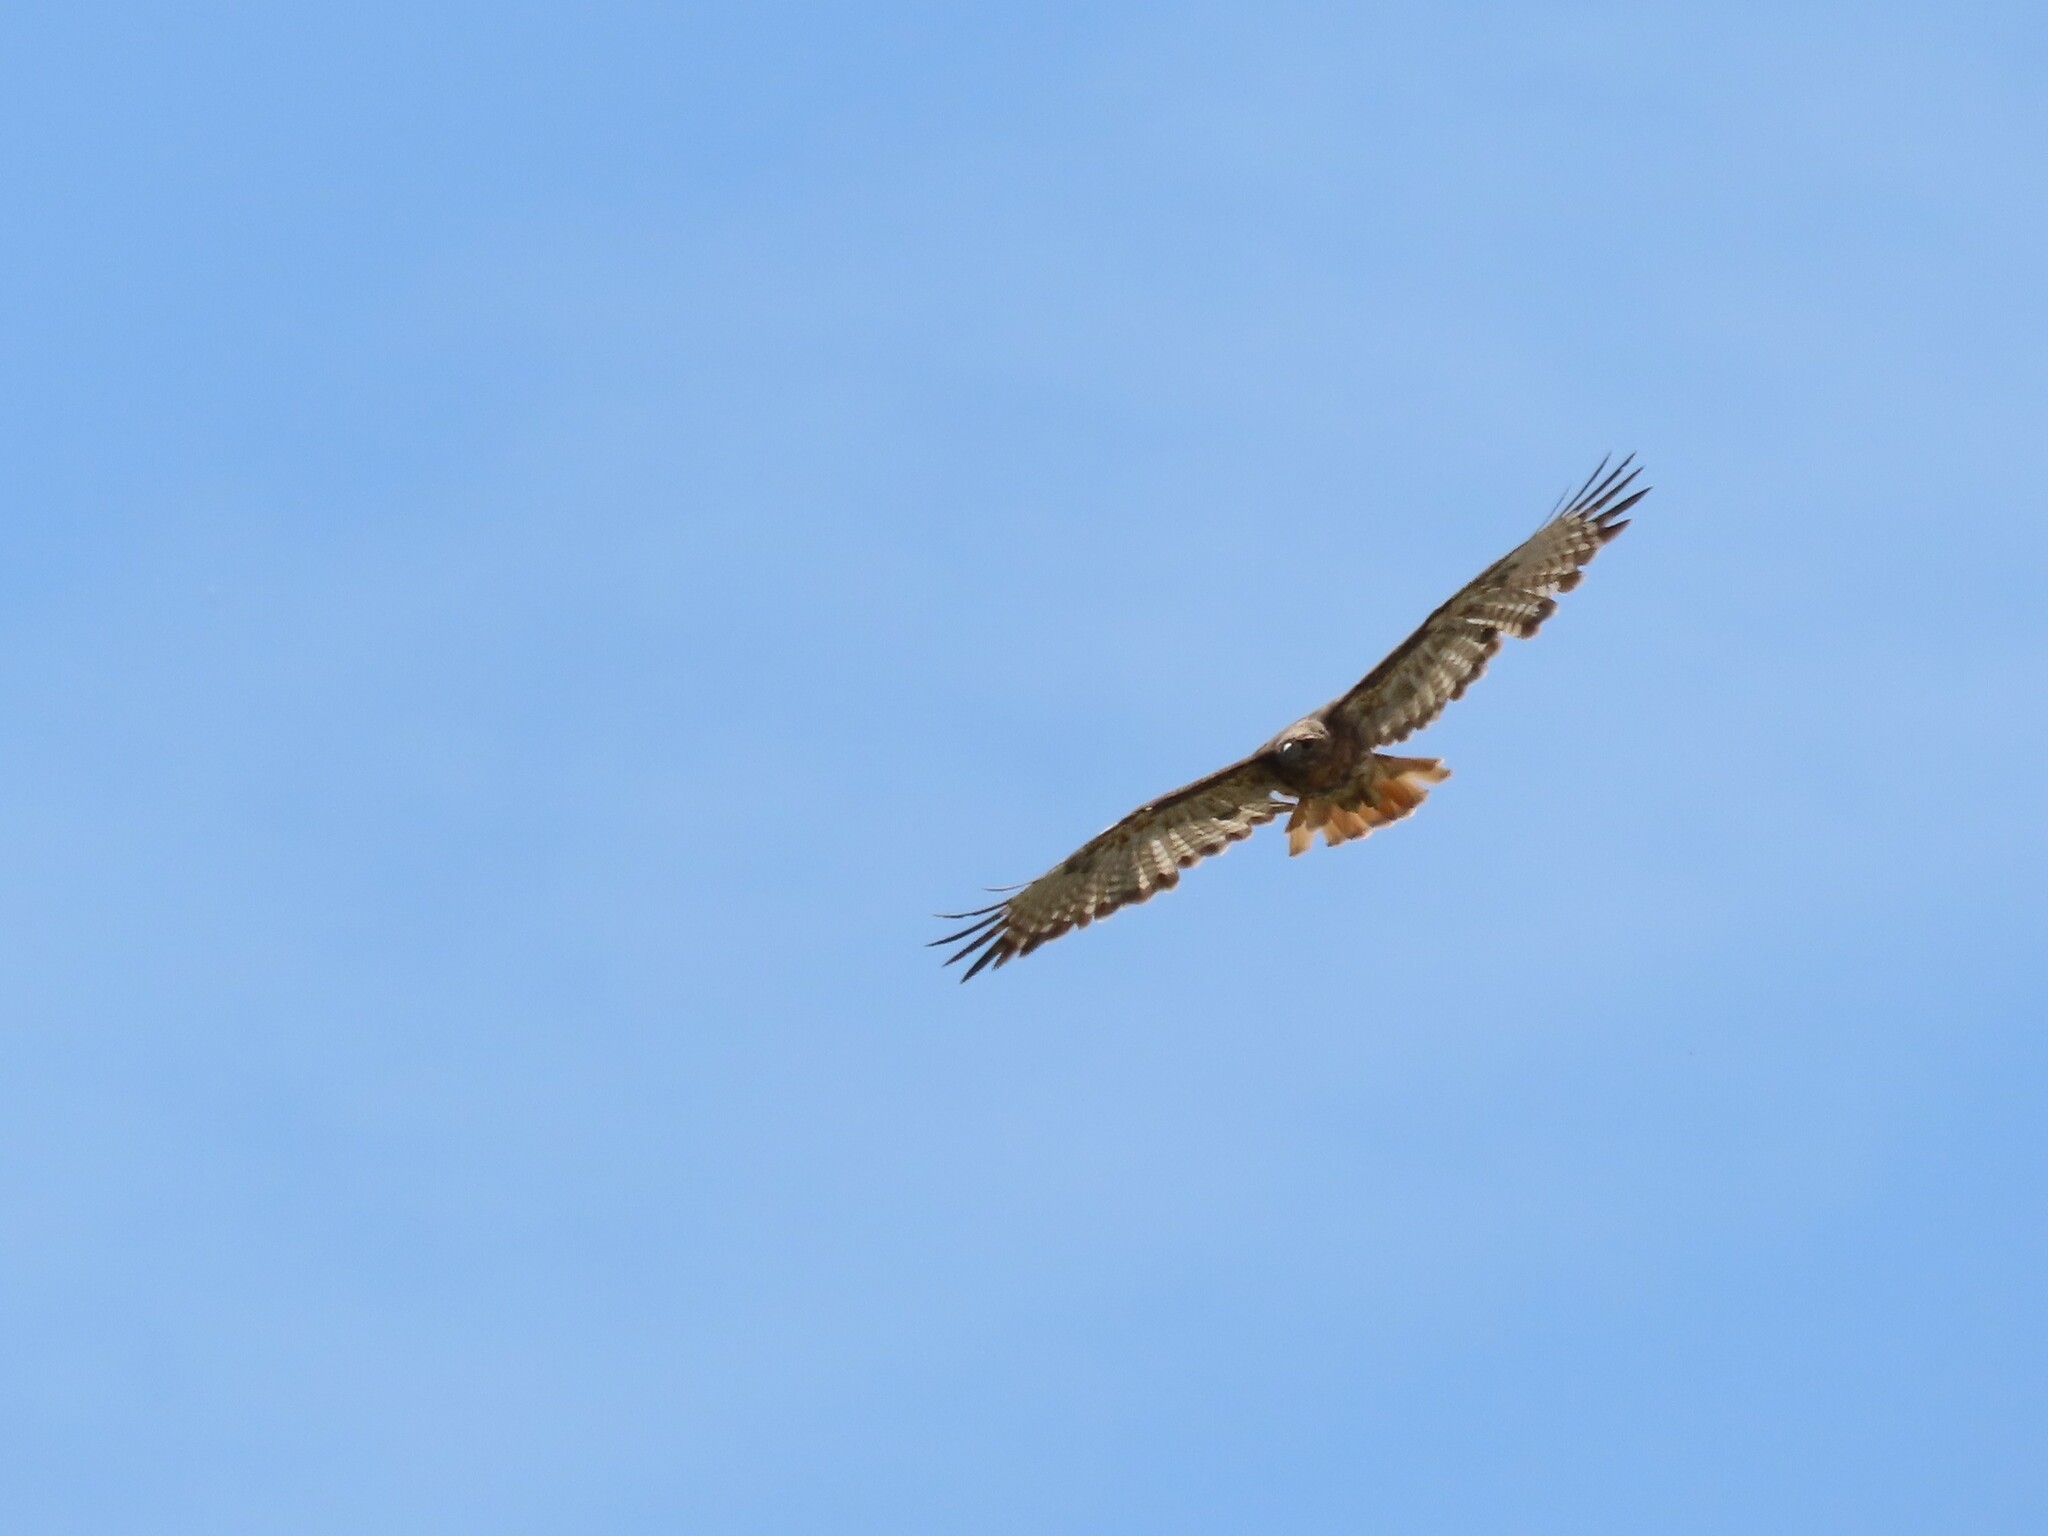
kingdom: Animalia
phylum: Chordata
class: Aves
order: Accipitriformes
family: Accipitridae
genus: Buteo
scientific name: Buteo jamaicensis
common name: Red-tailed hawk
